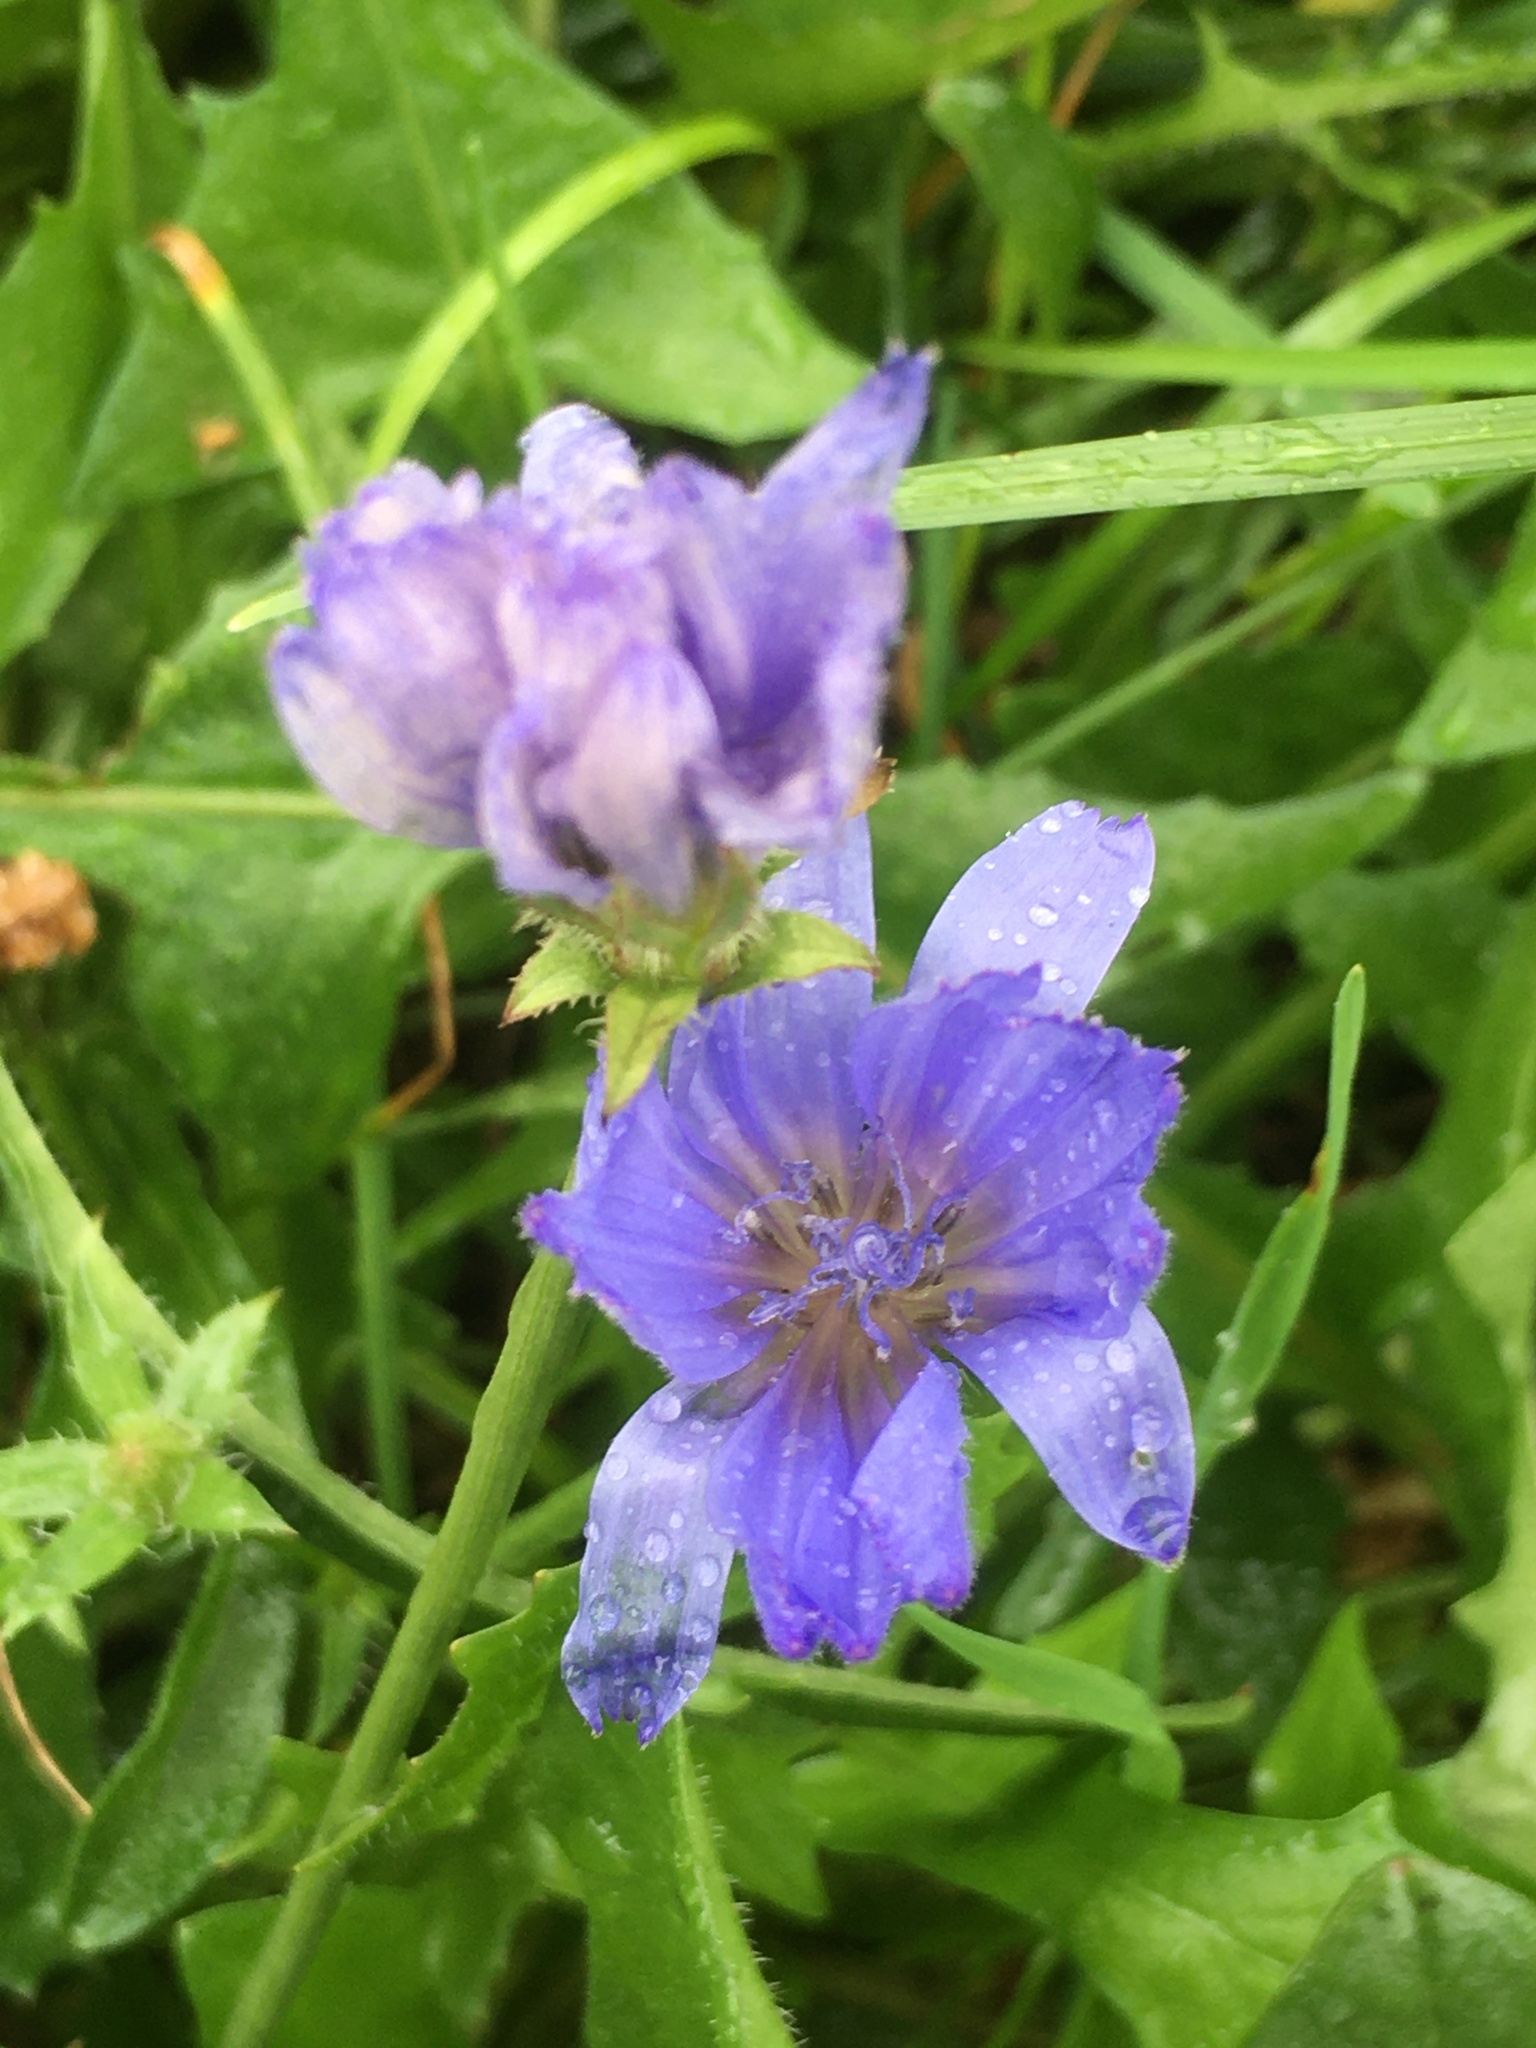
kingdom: Plantae
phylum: Tracheophyta
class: Magnoliopsida
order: Asterales
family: Asteraceae
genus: Cichorium
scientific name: Cichorium intybus
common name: Chicory
